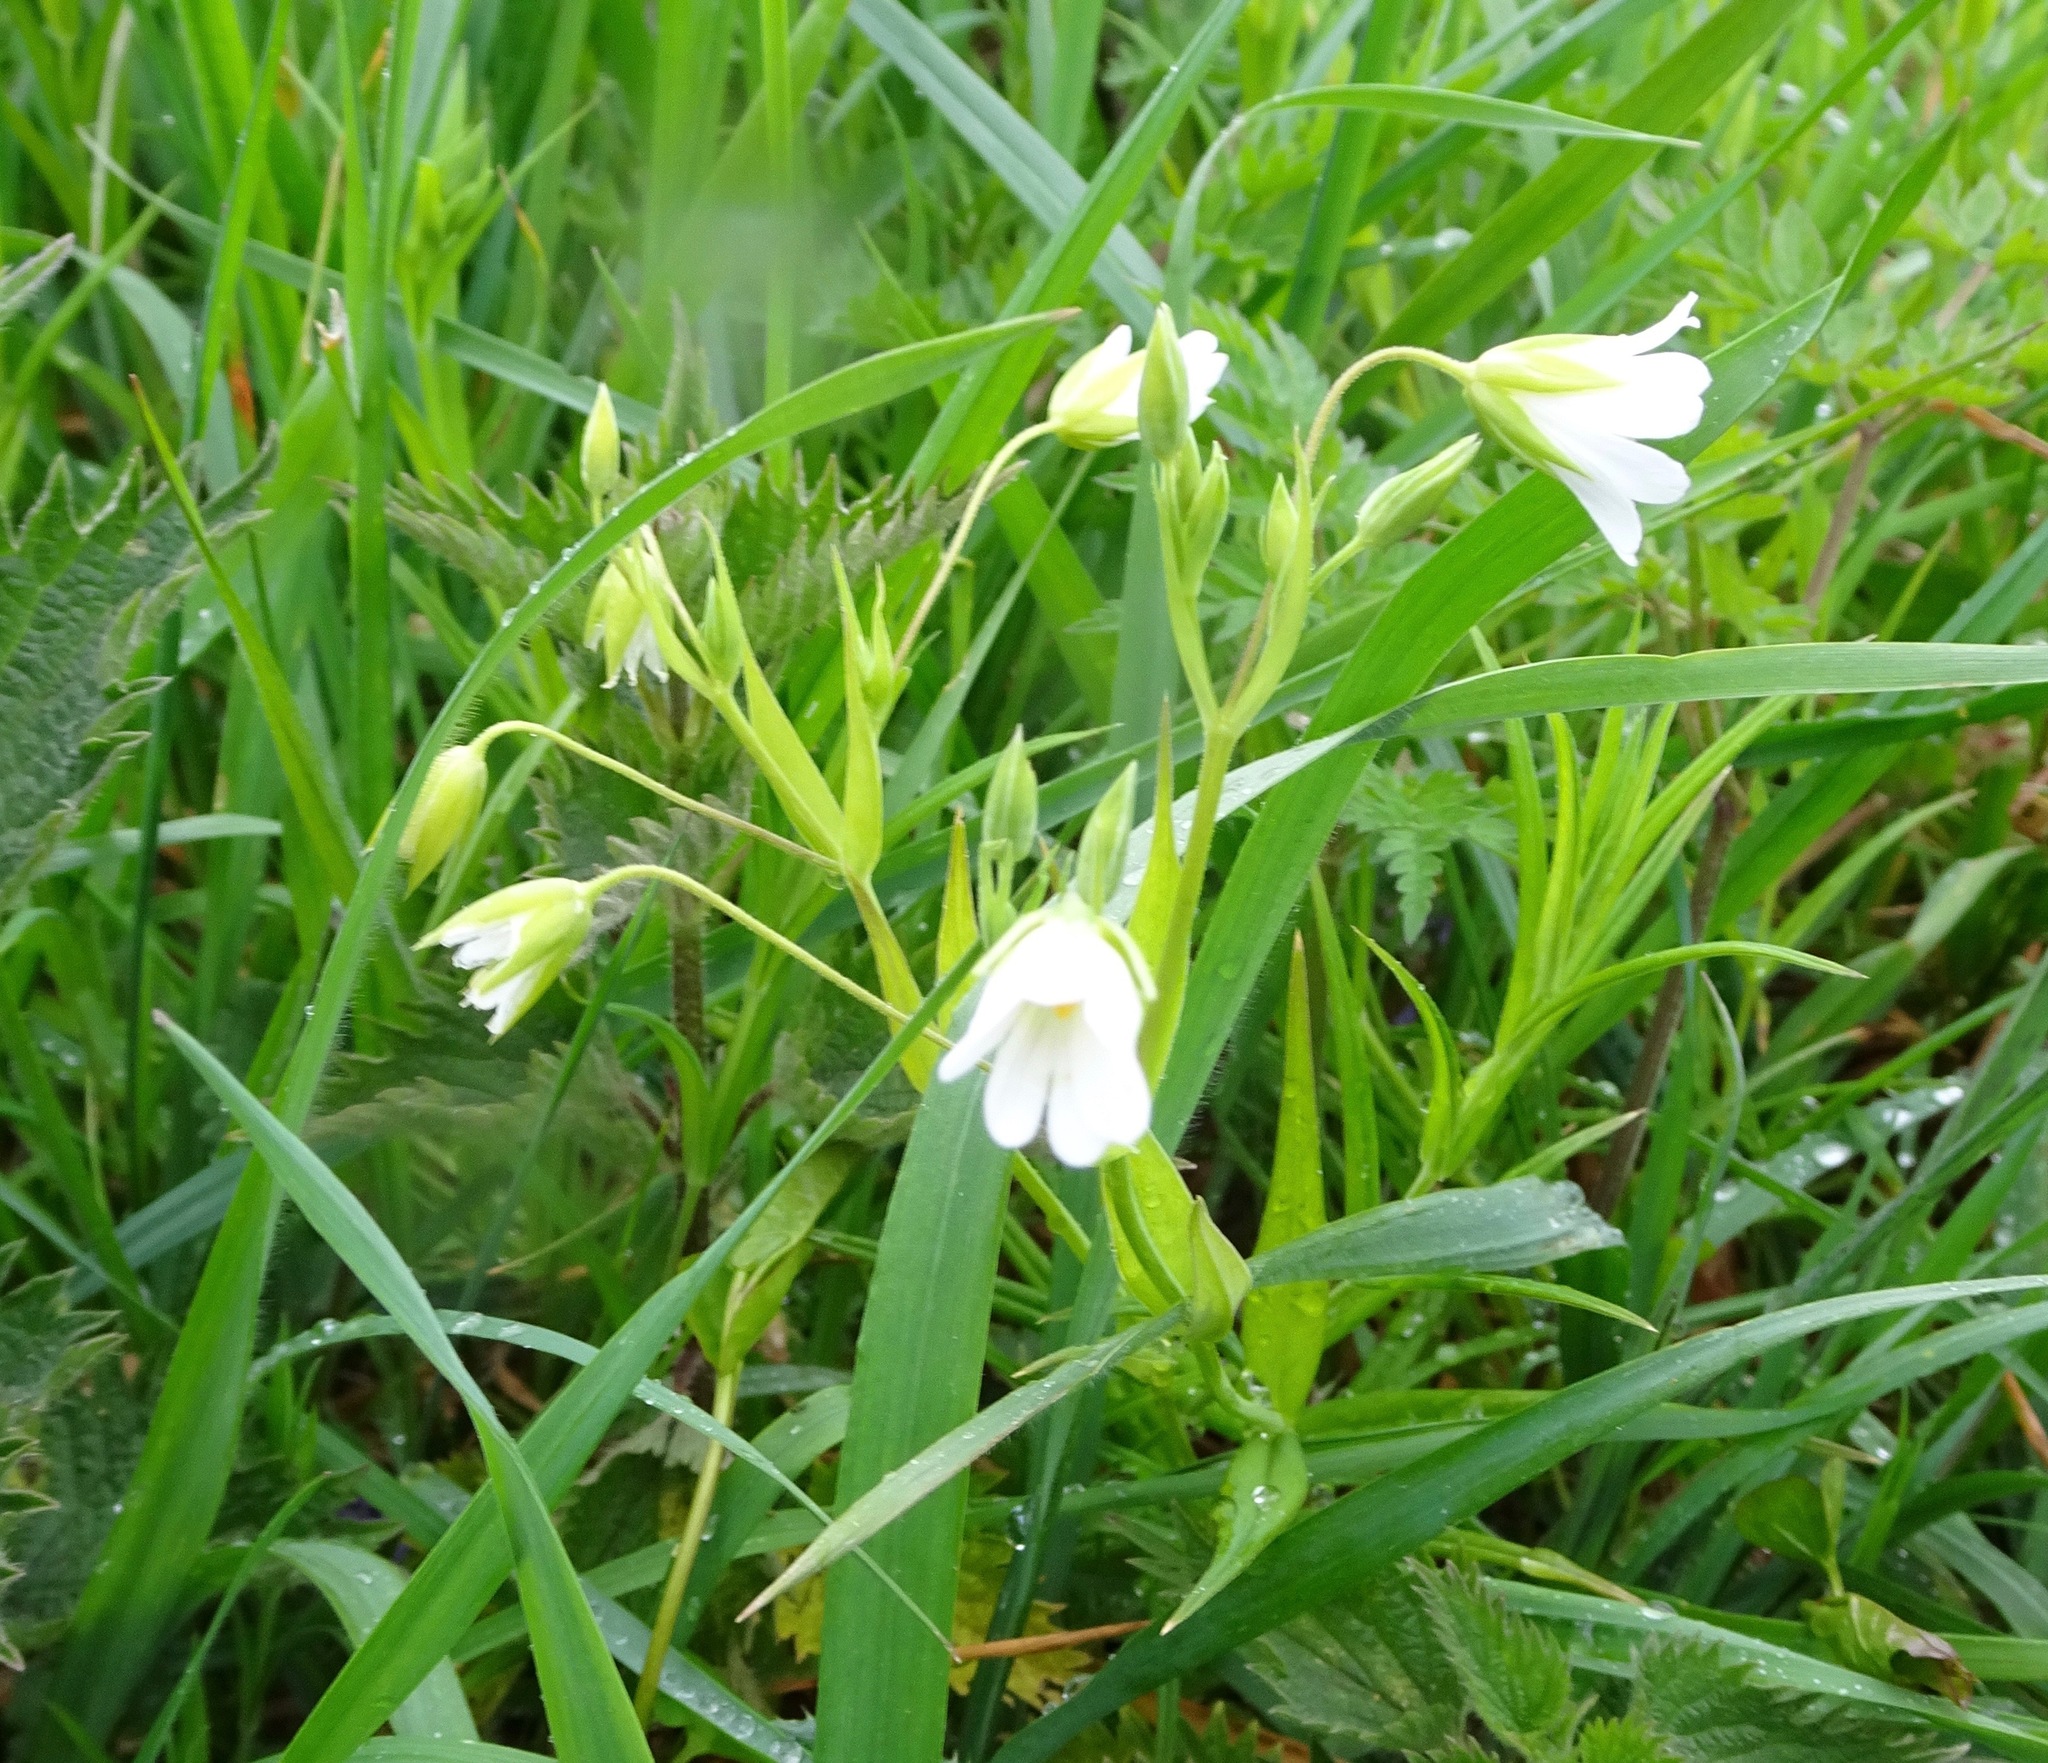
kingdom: Plantae
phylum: Tracheophyta
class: Magnoliopsida
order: Caryophyllales
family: Caryophyllaceae
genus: Rabelera
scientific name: Rabelera holostea
